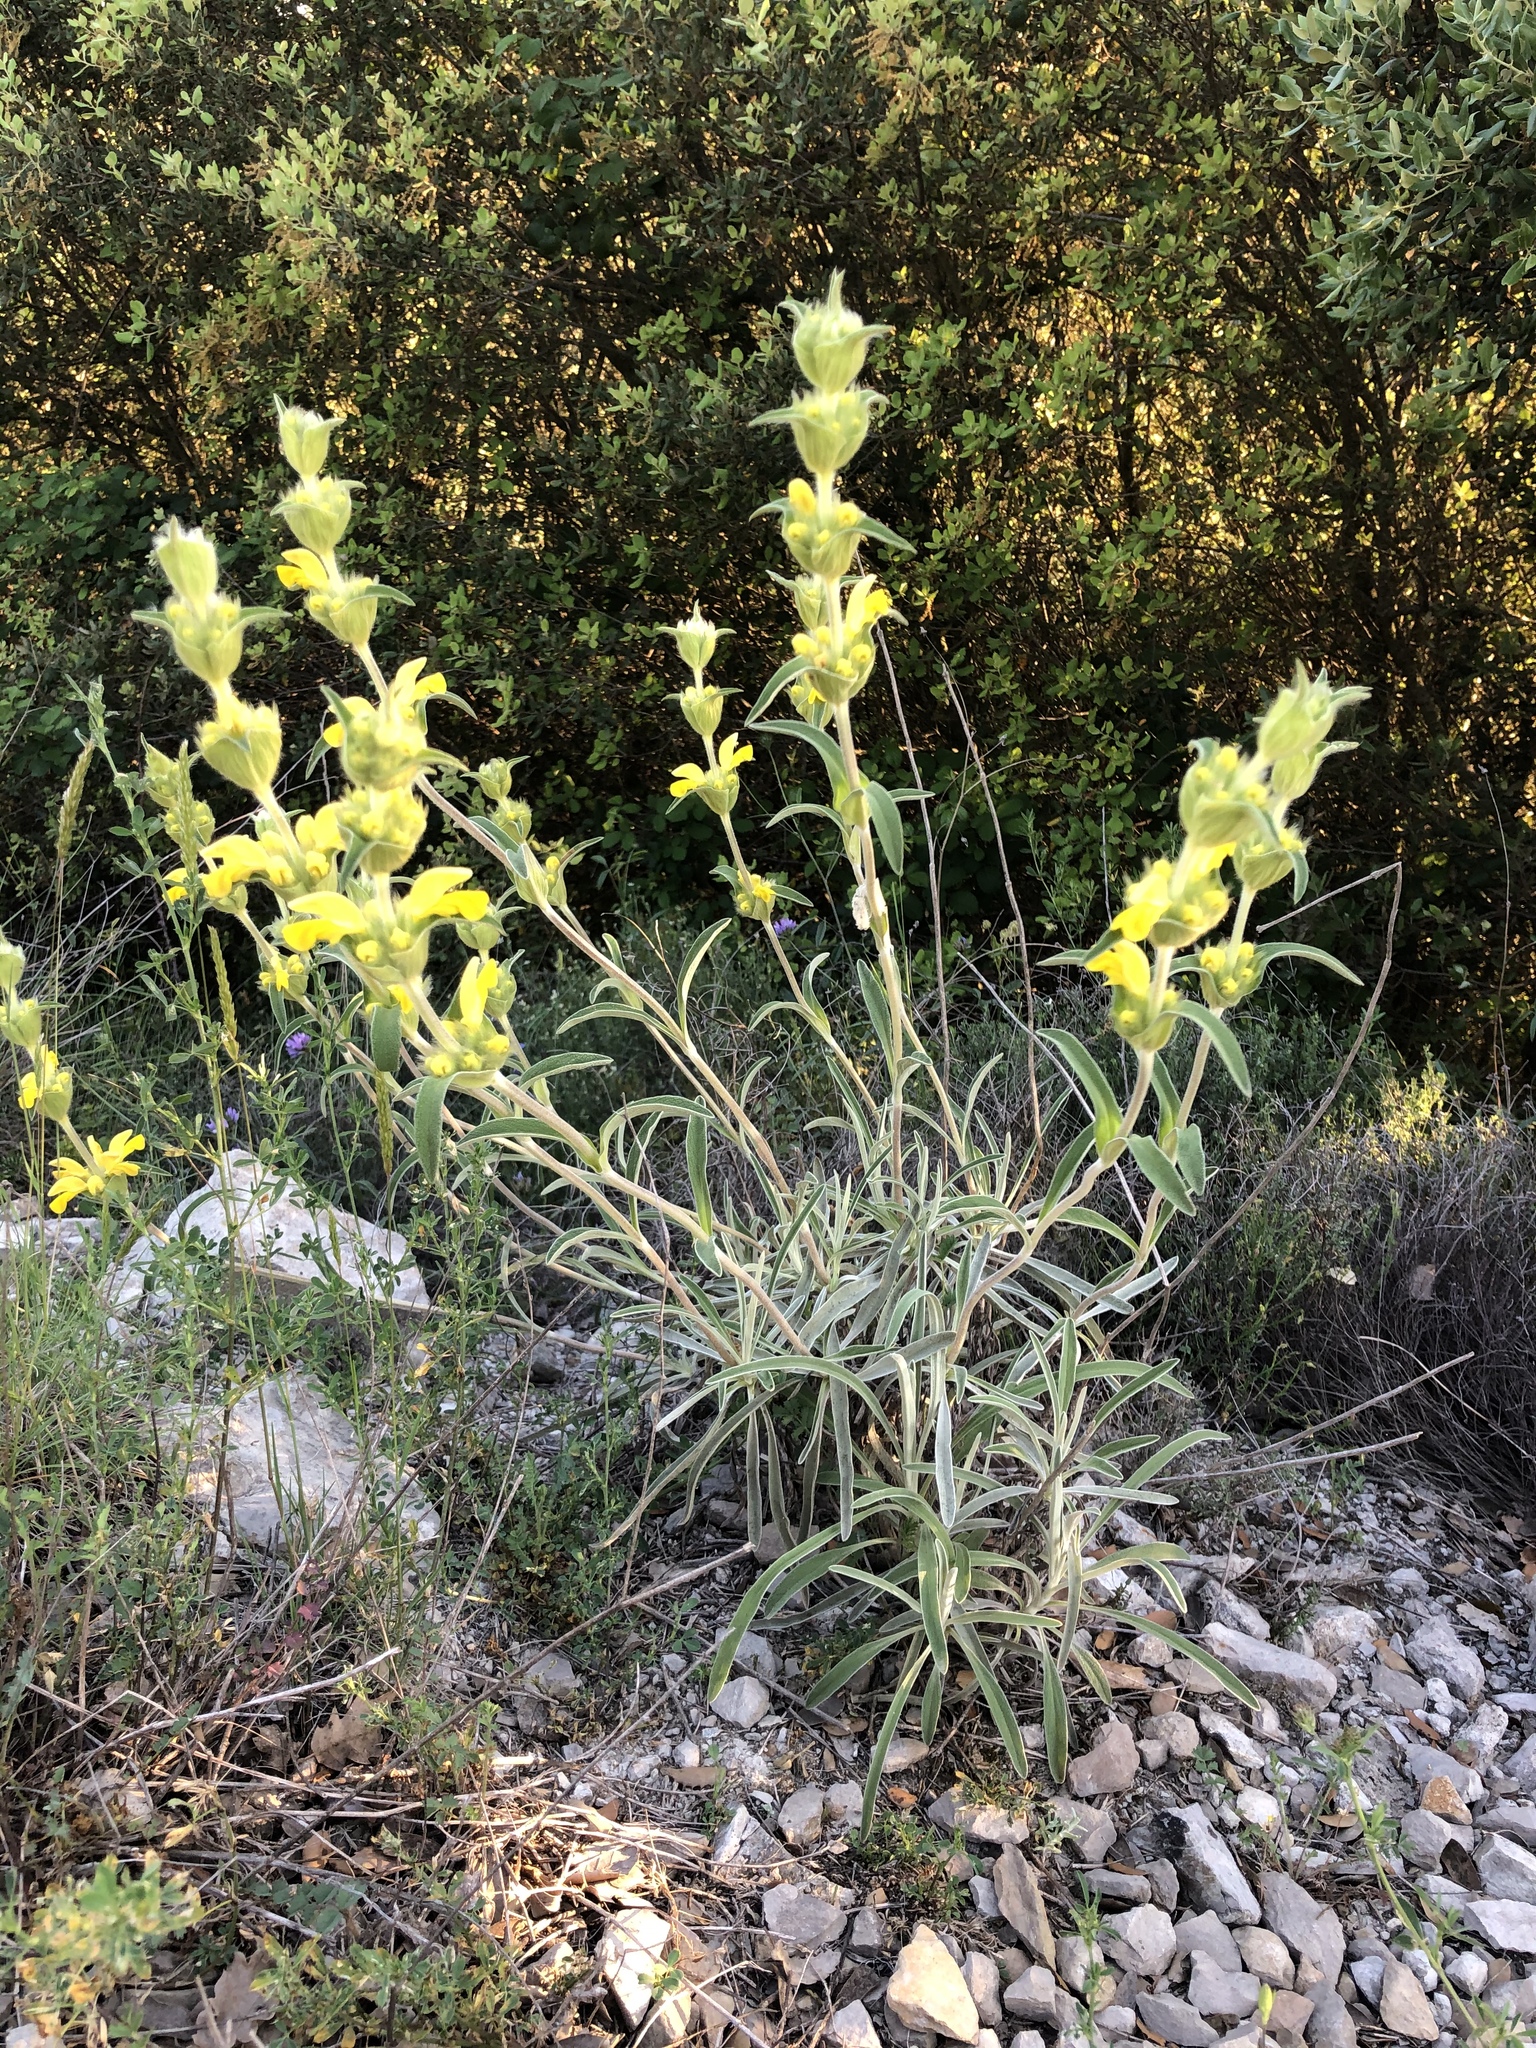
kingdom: Plantae
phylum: Tracheophyta
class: Magnoliopsida
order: Lamiales
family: Lamiaceae
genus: Phlomis
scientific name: Phlomis lychnitis
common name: Lampwickplant
